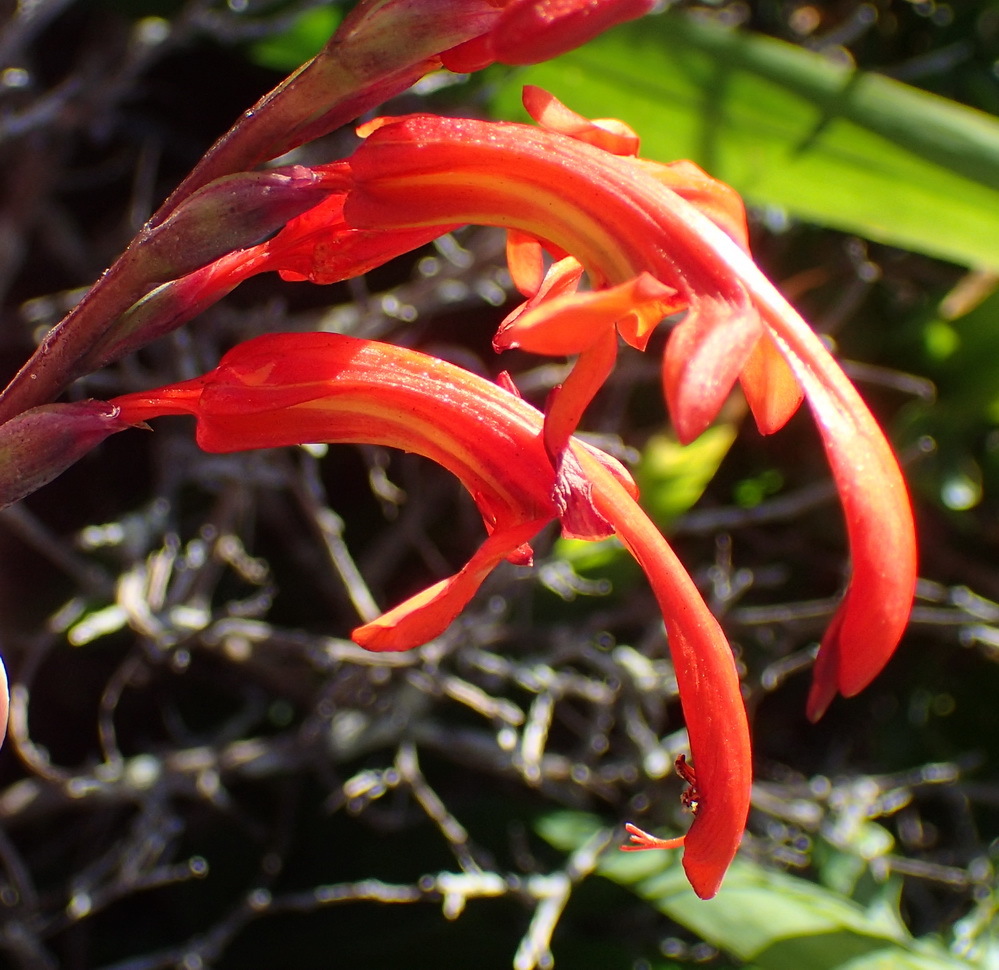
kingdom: Plantae
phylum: Tracheophyta
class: Liliopsida
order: Asparagales
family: Iridaceae
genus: Chasmanthe
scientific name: Chasmanthe aethiopica
